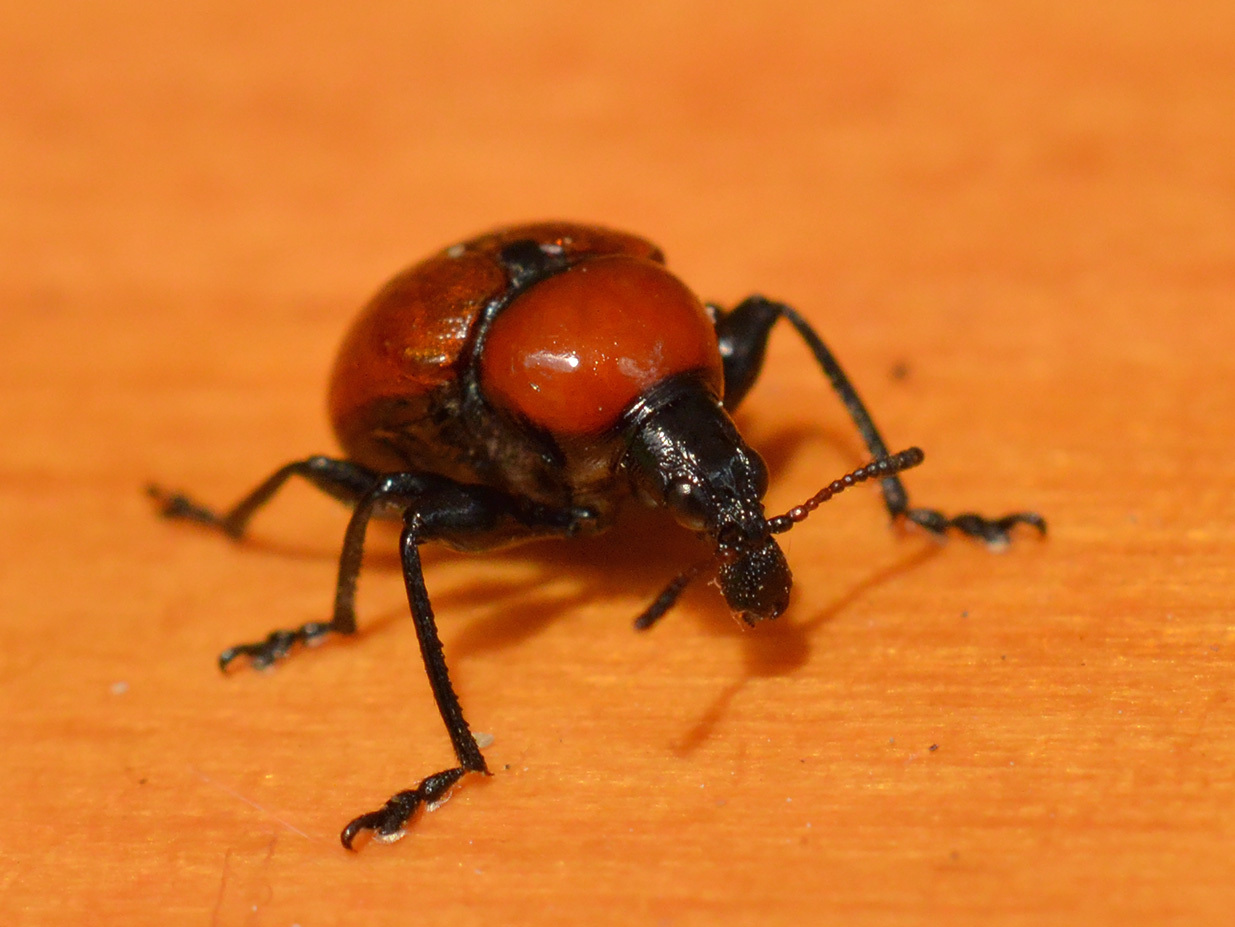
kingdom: Animalia
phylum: Arthropoda
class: Insecta
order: Coleoptera
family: Attelabidae
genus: Attelabus
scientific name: Attelabus nitens
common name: Oak leaf-roller
